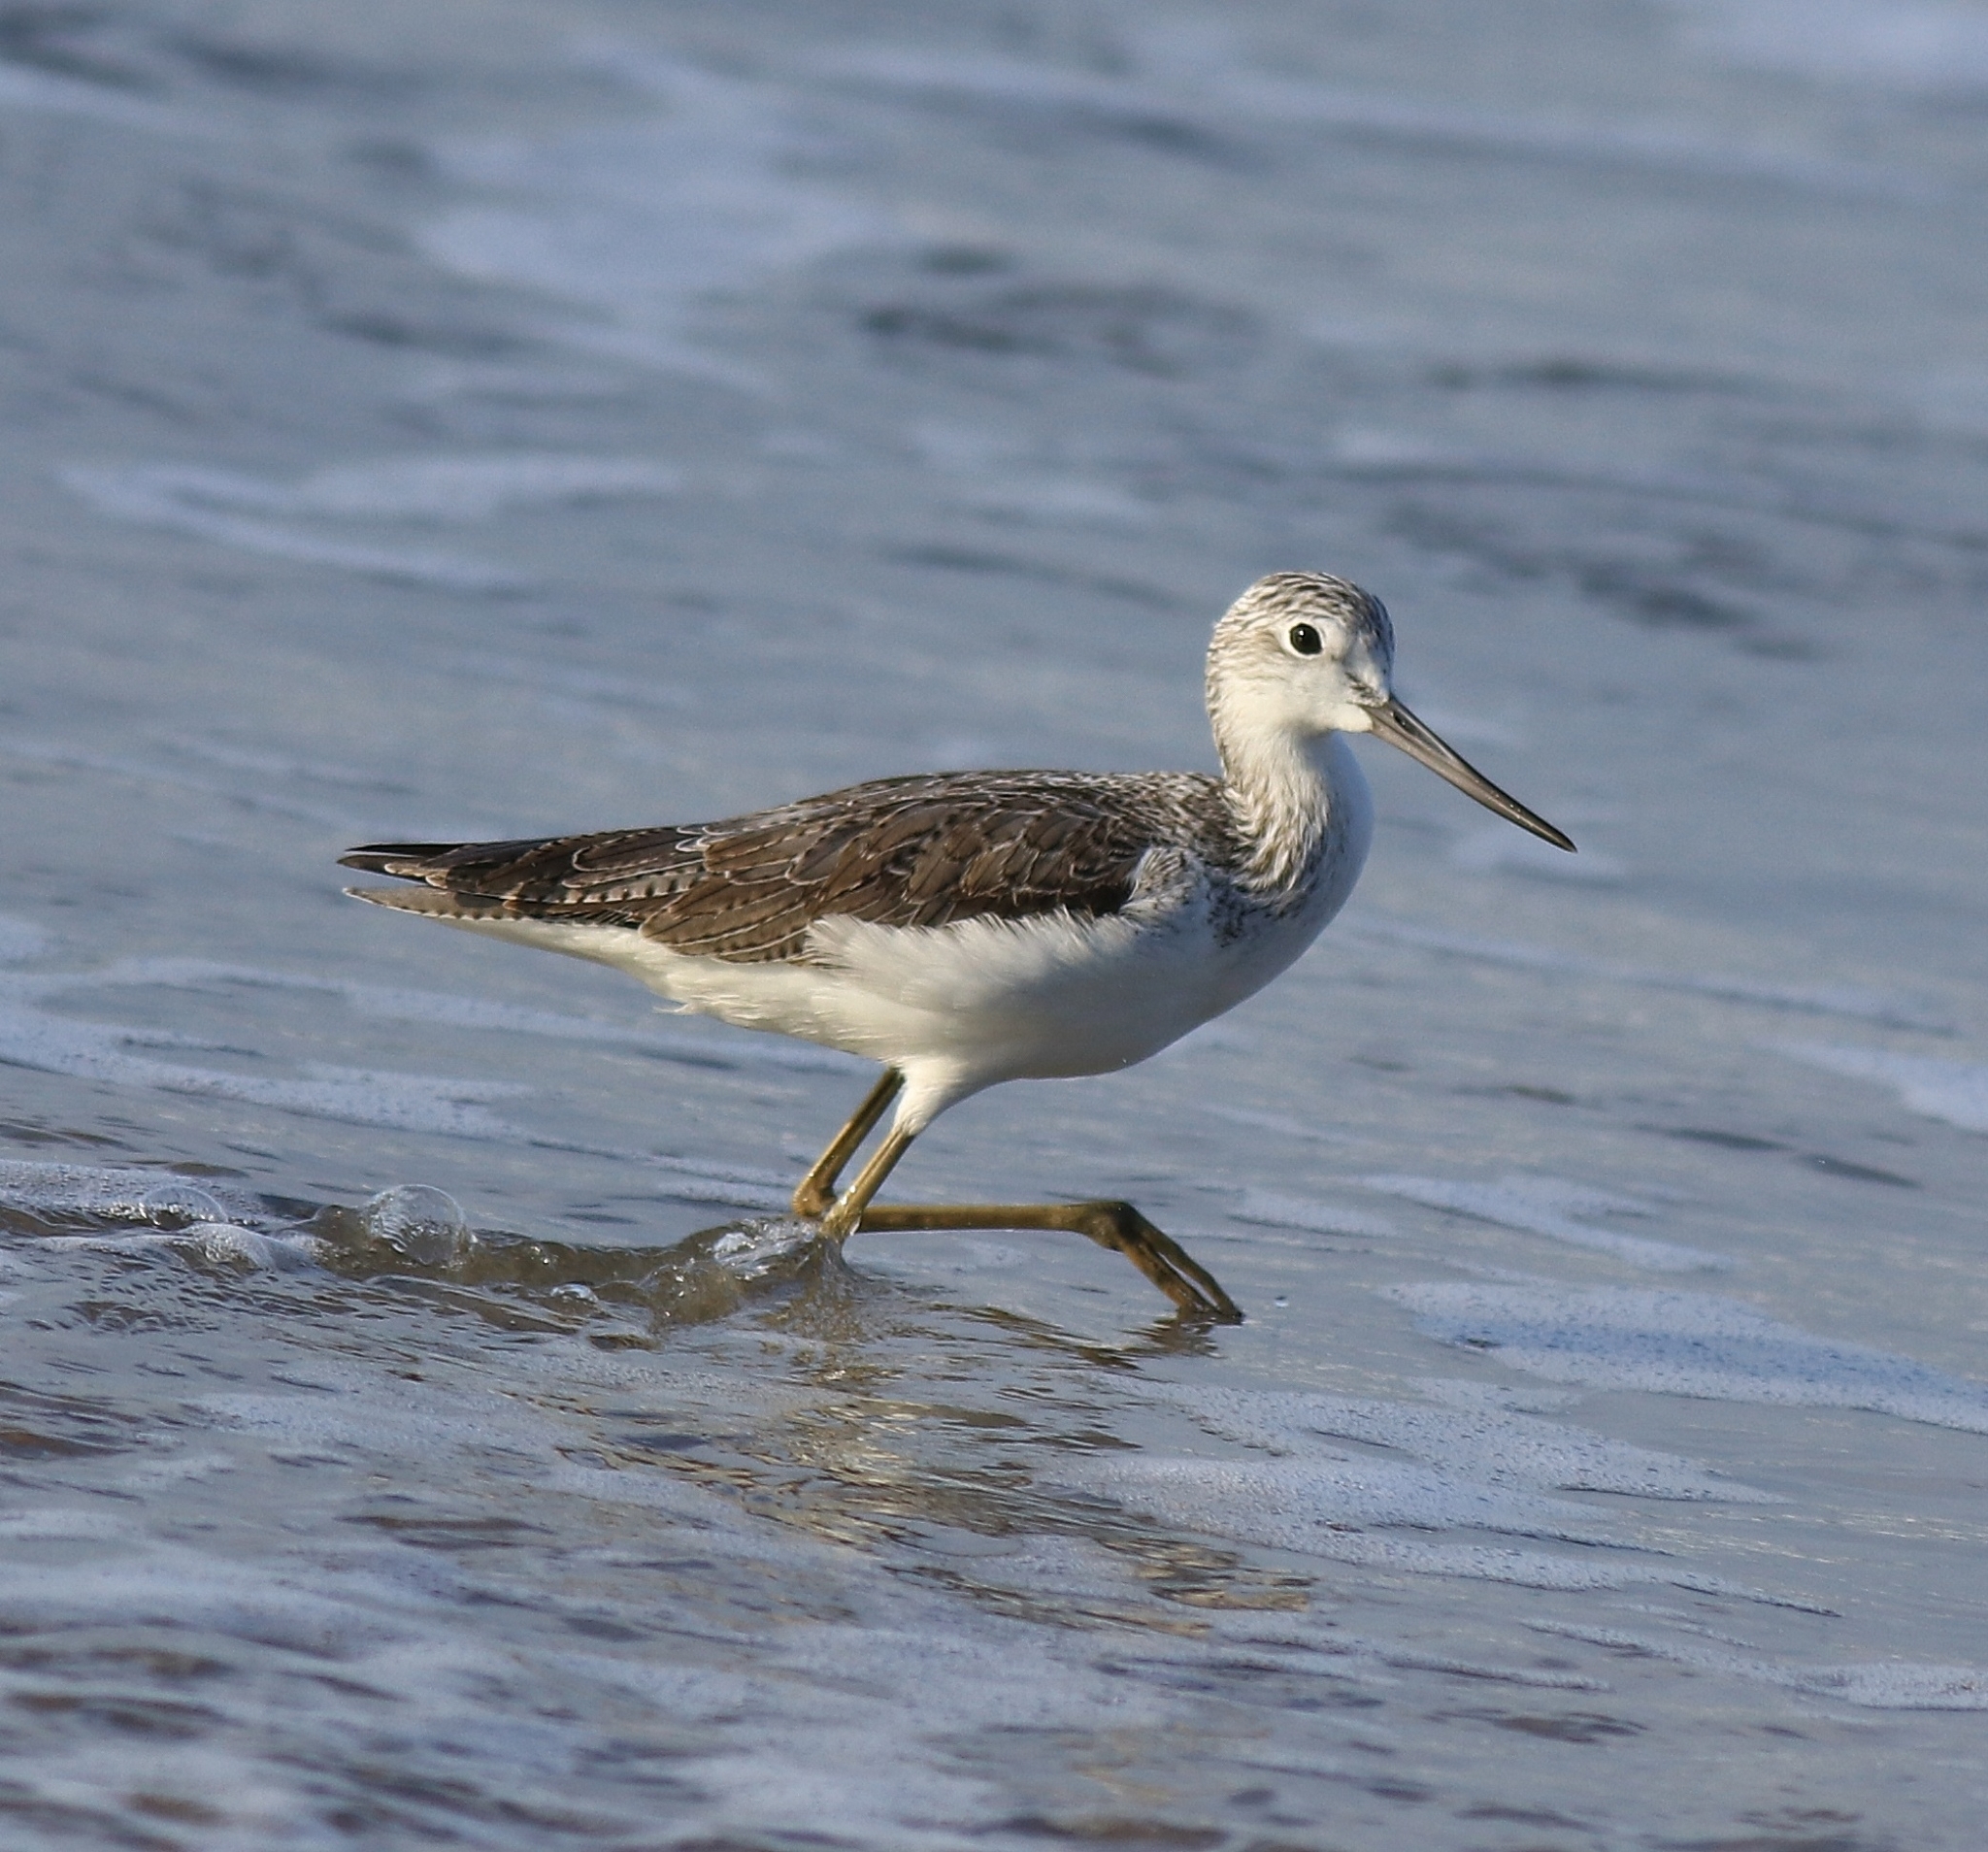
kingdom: Animalia
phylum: Chordata
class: Aves
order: Charadriiformes
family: Scolopacidae
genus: Tringa
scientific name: Tringa nebularia
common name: Common greenshank
